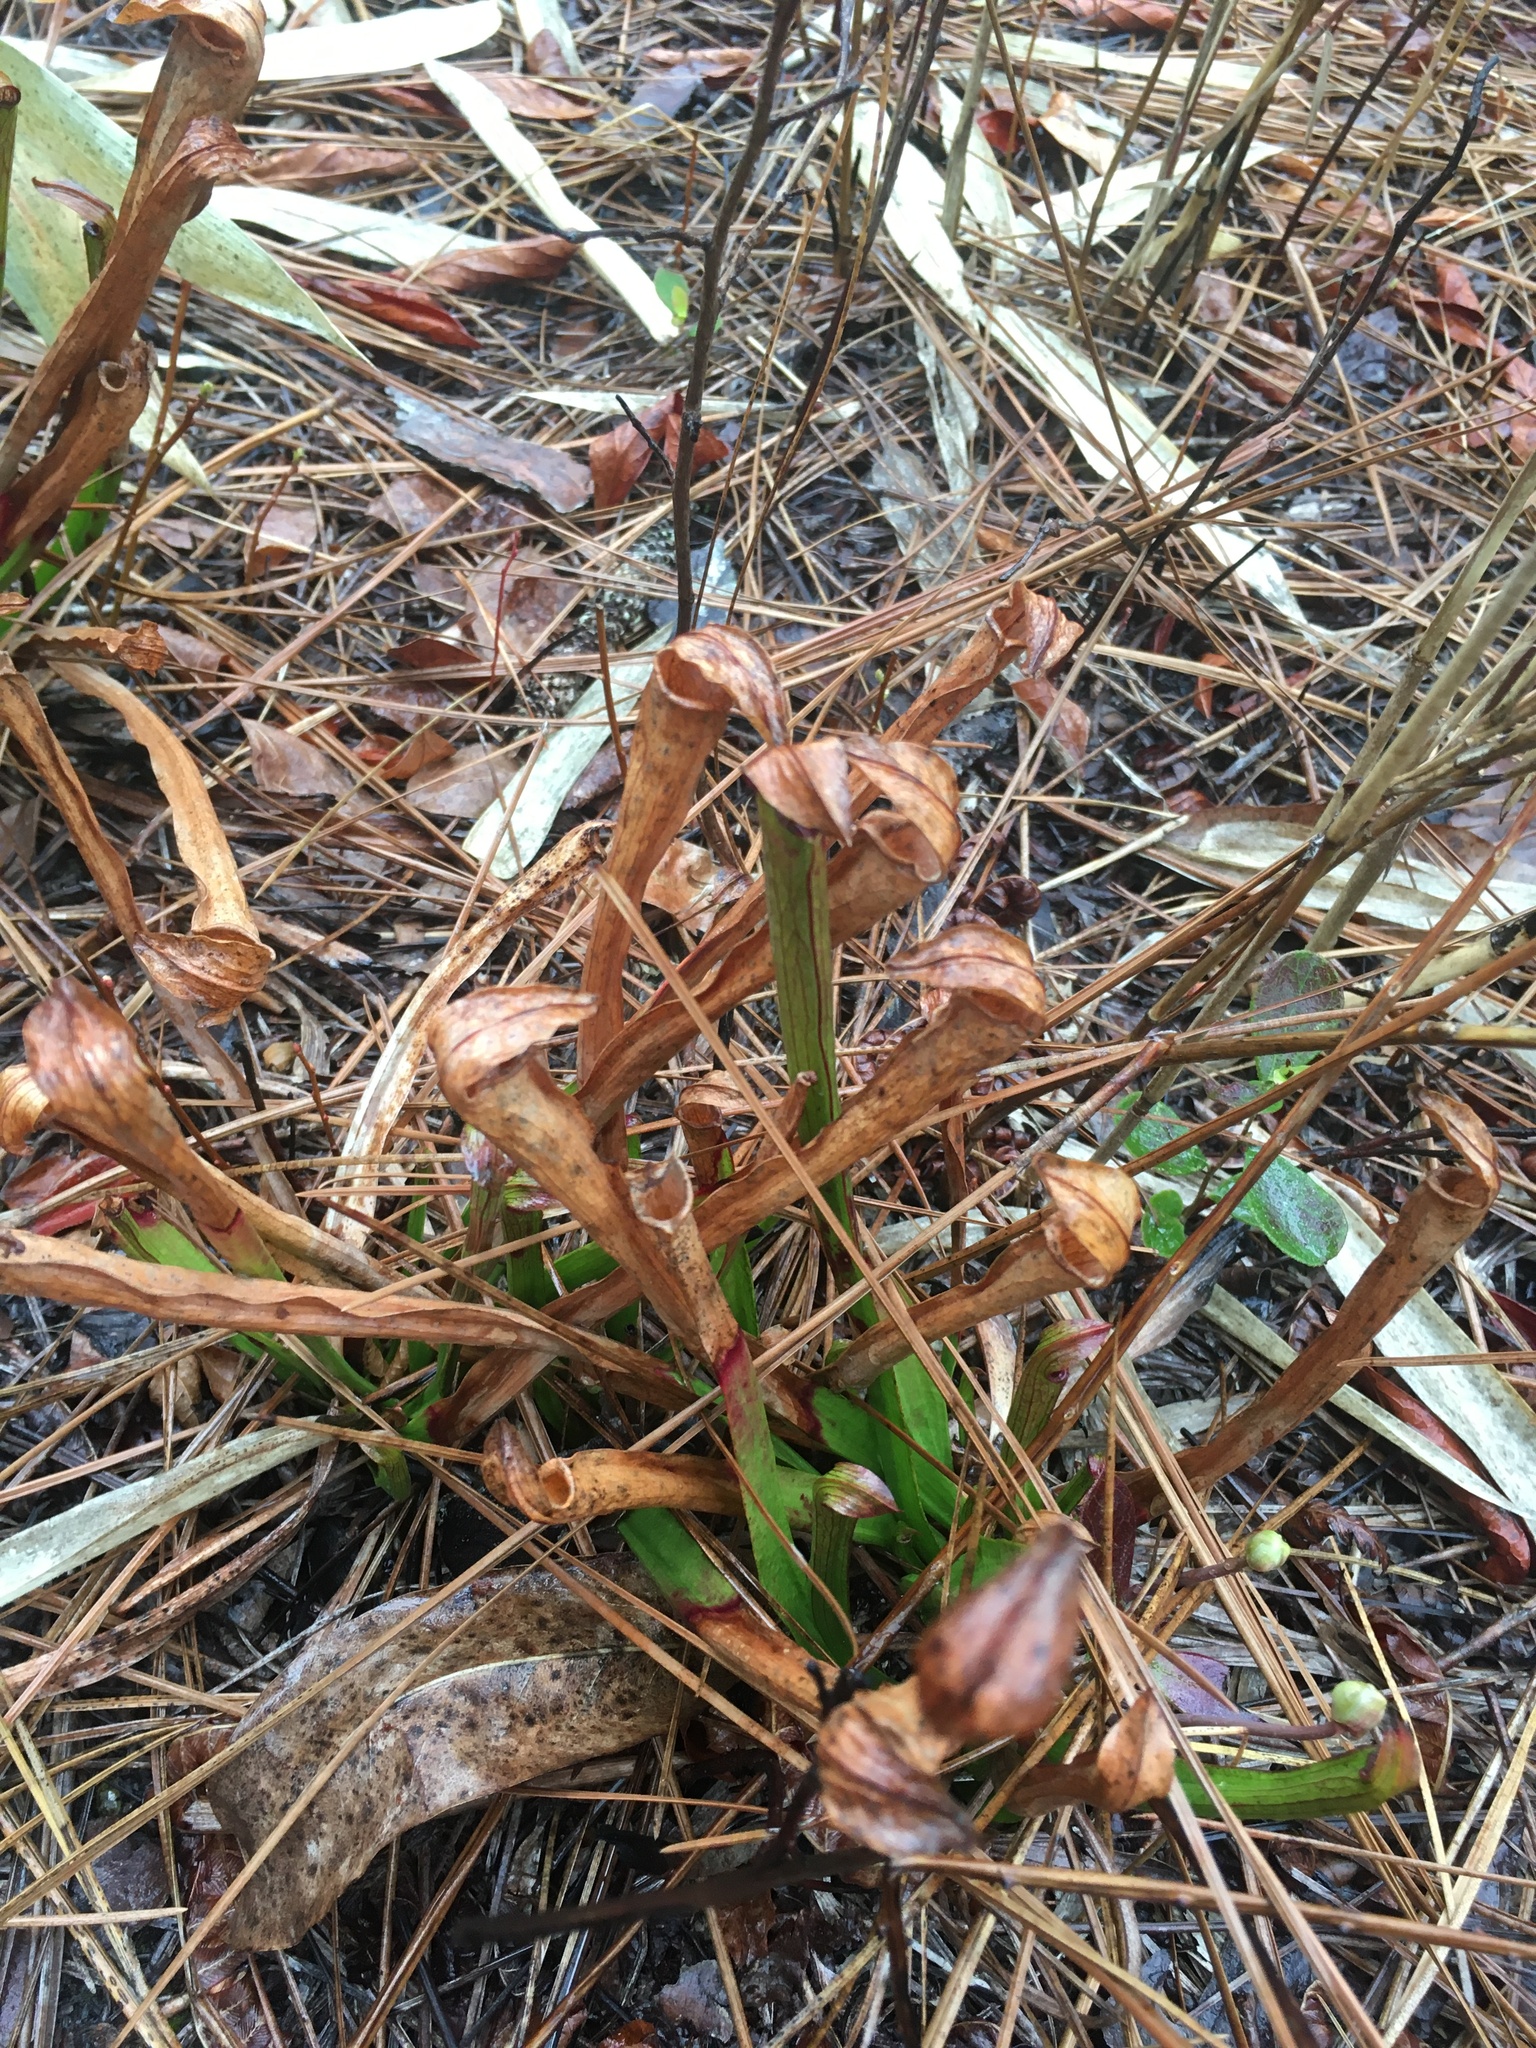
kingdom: Plantae
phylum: Tracheophyta
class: Magnoliopsida
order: Ericales
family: Sarraceniaceae
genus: Sarracenia
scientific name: Sarracenia rubra
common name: Sweet pitcherplant
